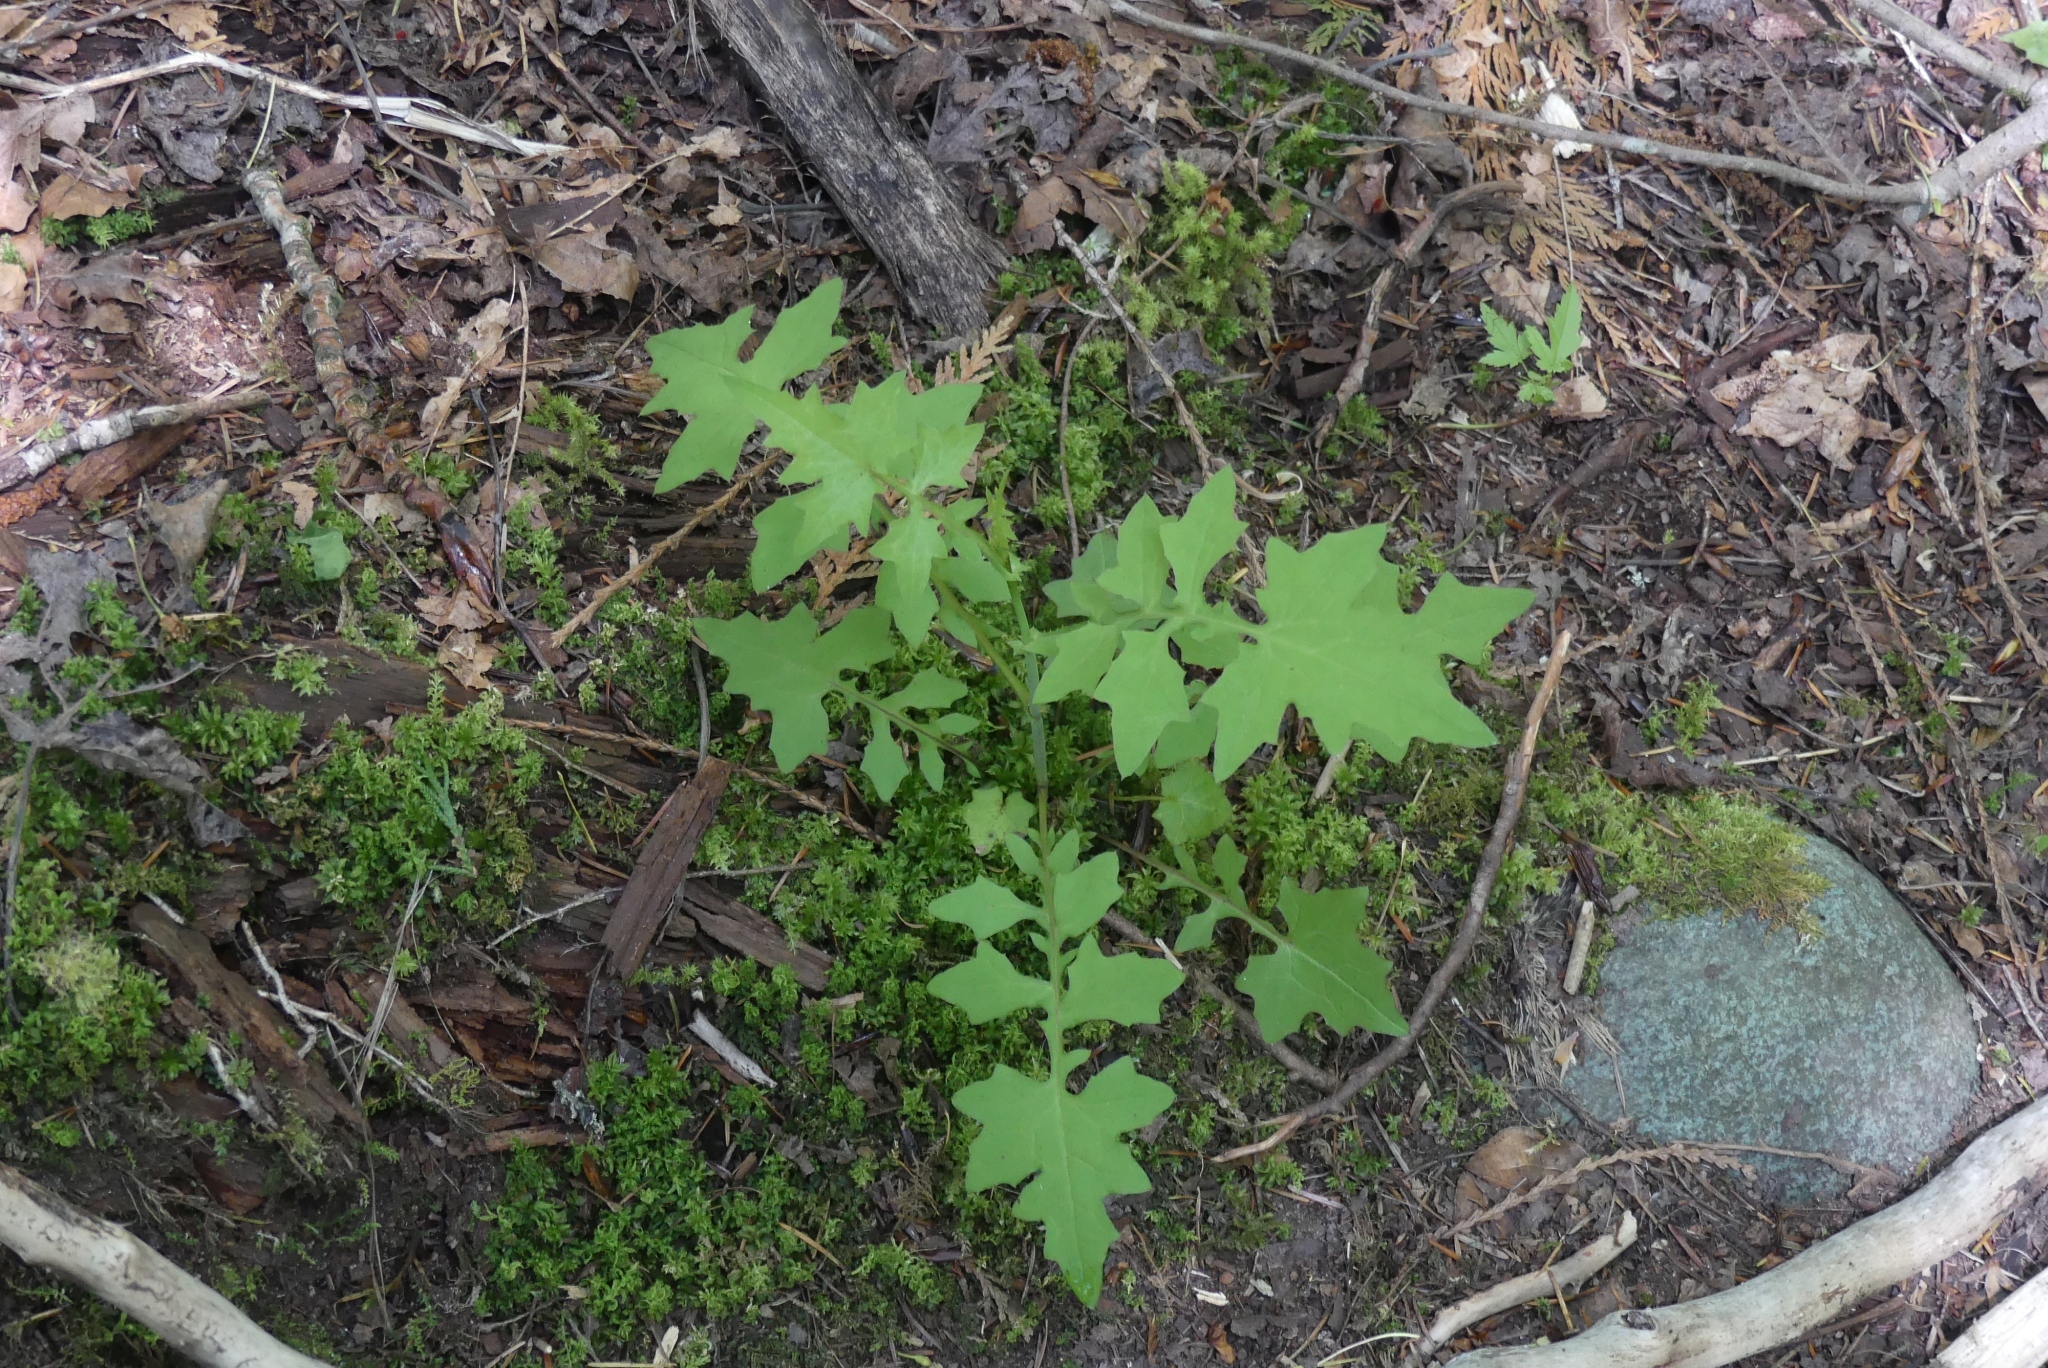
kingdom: Plantae
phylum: Tracheophyta
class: Magnoliopsida
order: Asterales
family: Asteraceae
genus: Mycelis
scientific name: Mycelis muralis
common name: Wall lettuce
